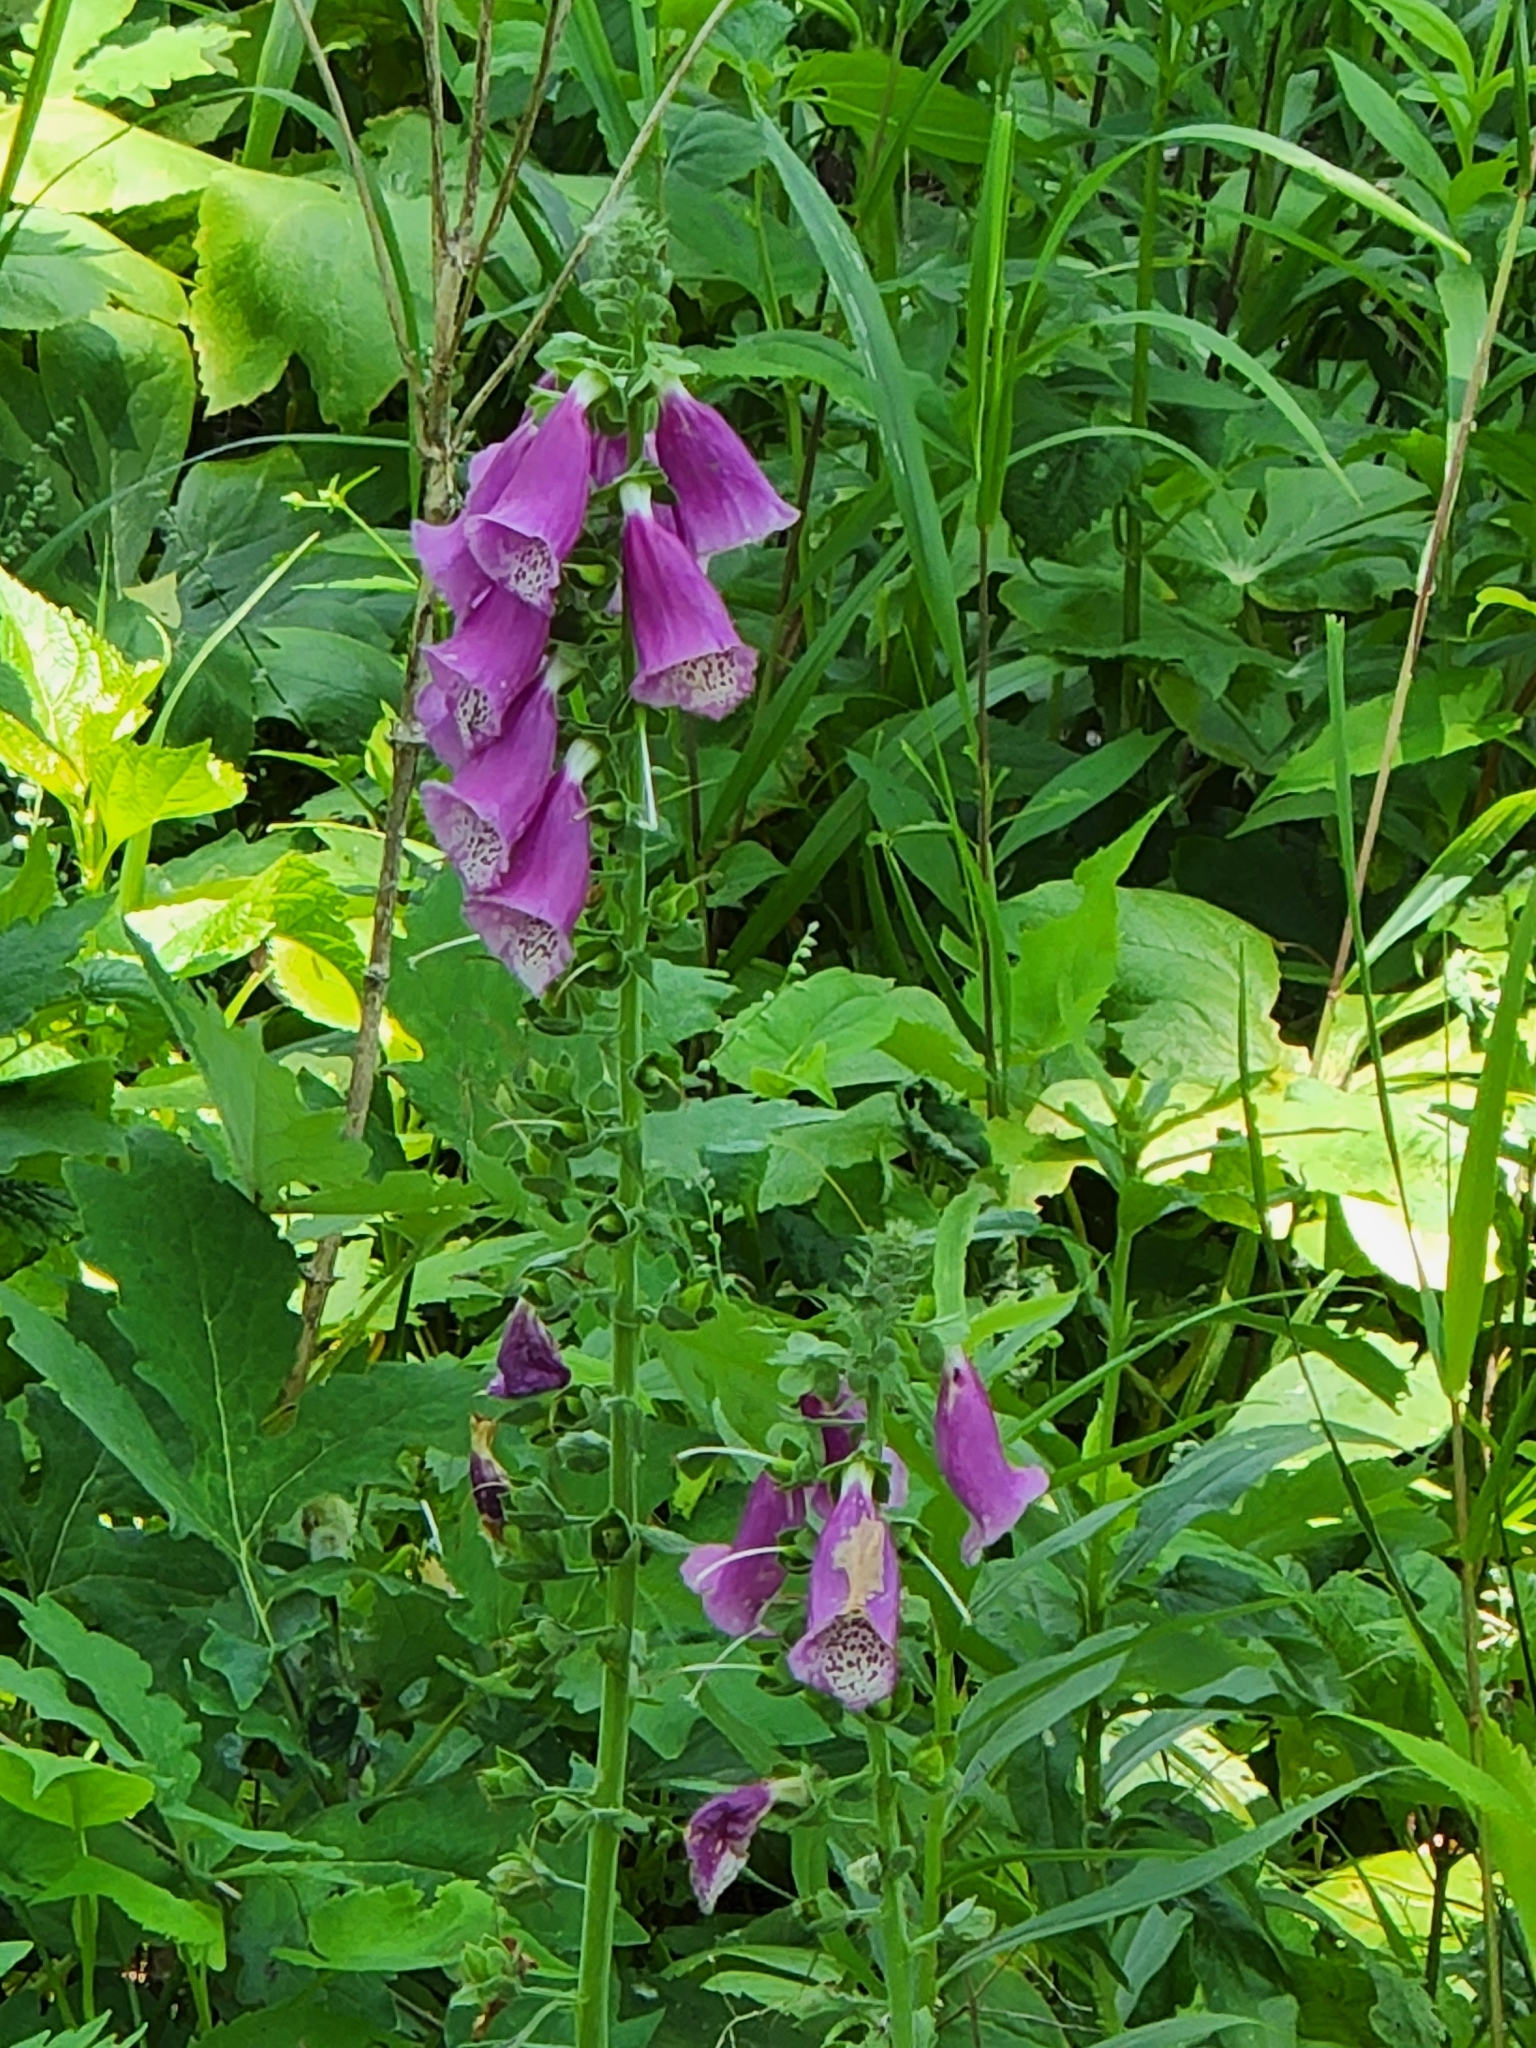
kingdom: Plantae
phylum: Tracheophyta
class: Magnoliopsida
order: Lamiales
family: Plantaginaceae
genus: Digitalis
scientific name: Digitalis purpurea
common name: Foxglove
